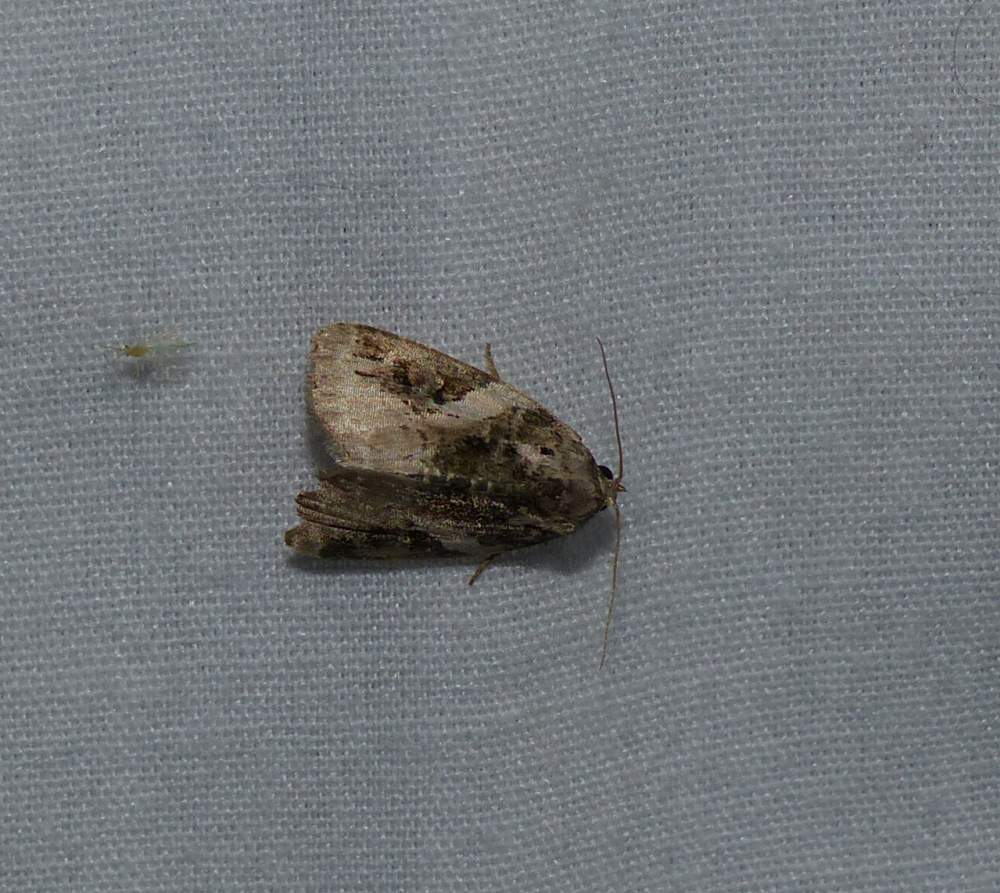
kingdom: Animalia
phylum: Arthropoda
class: Insecta
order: Lepidoptera
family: Noctuidae
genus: Pseudeustrotia
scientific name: Pseudeustrotia carneola
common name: Pink-barred lithacodia moth
